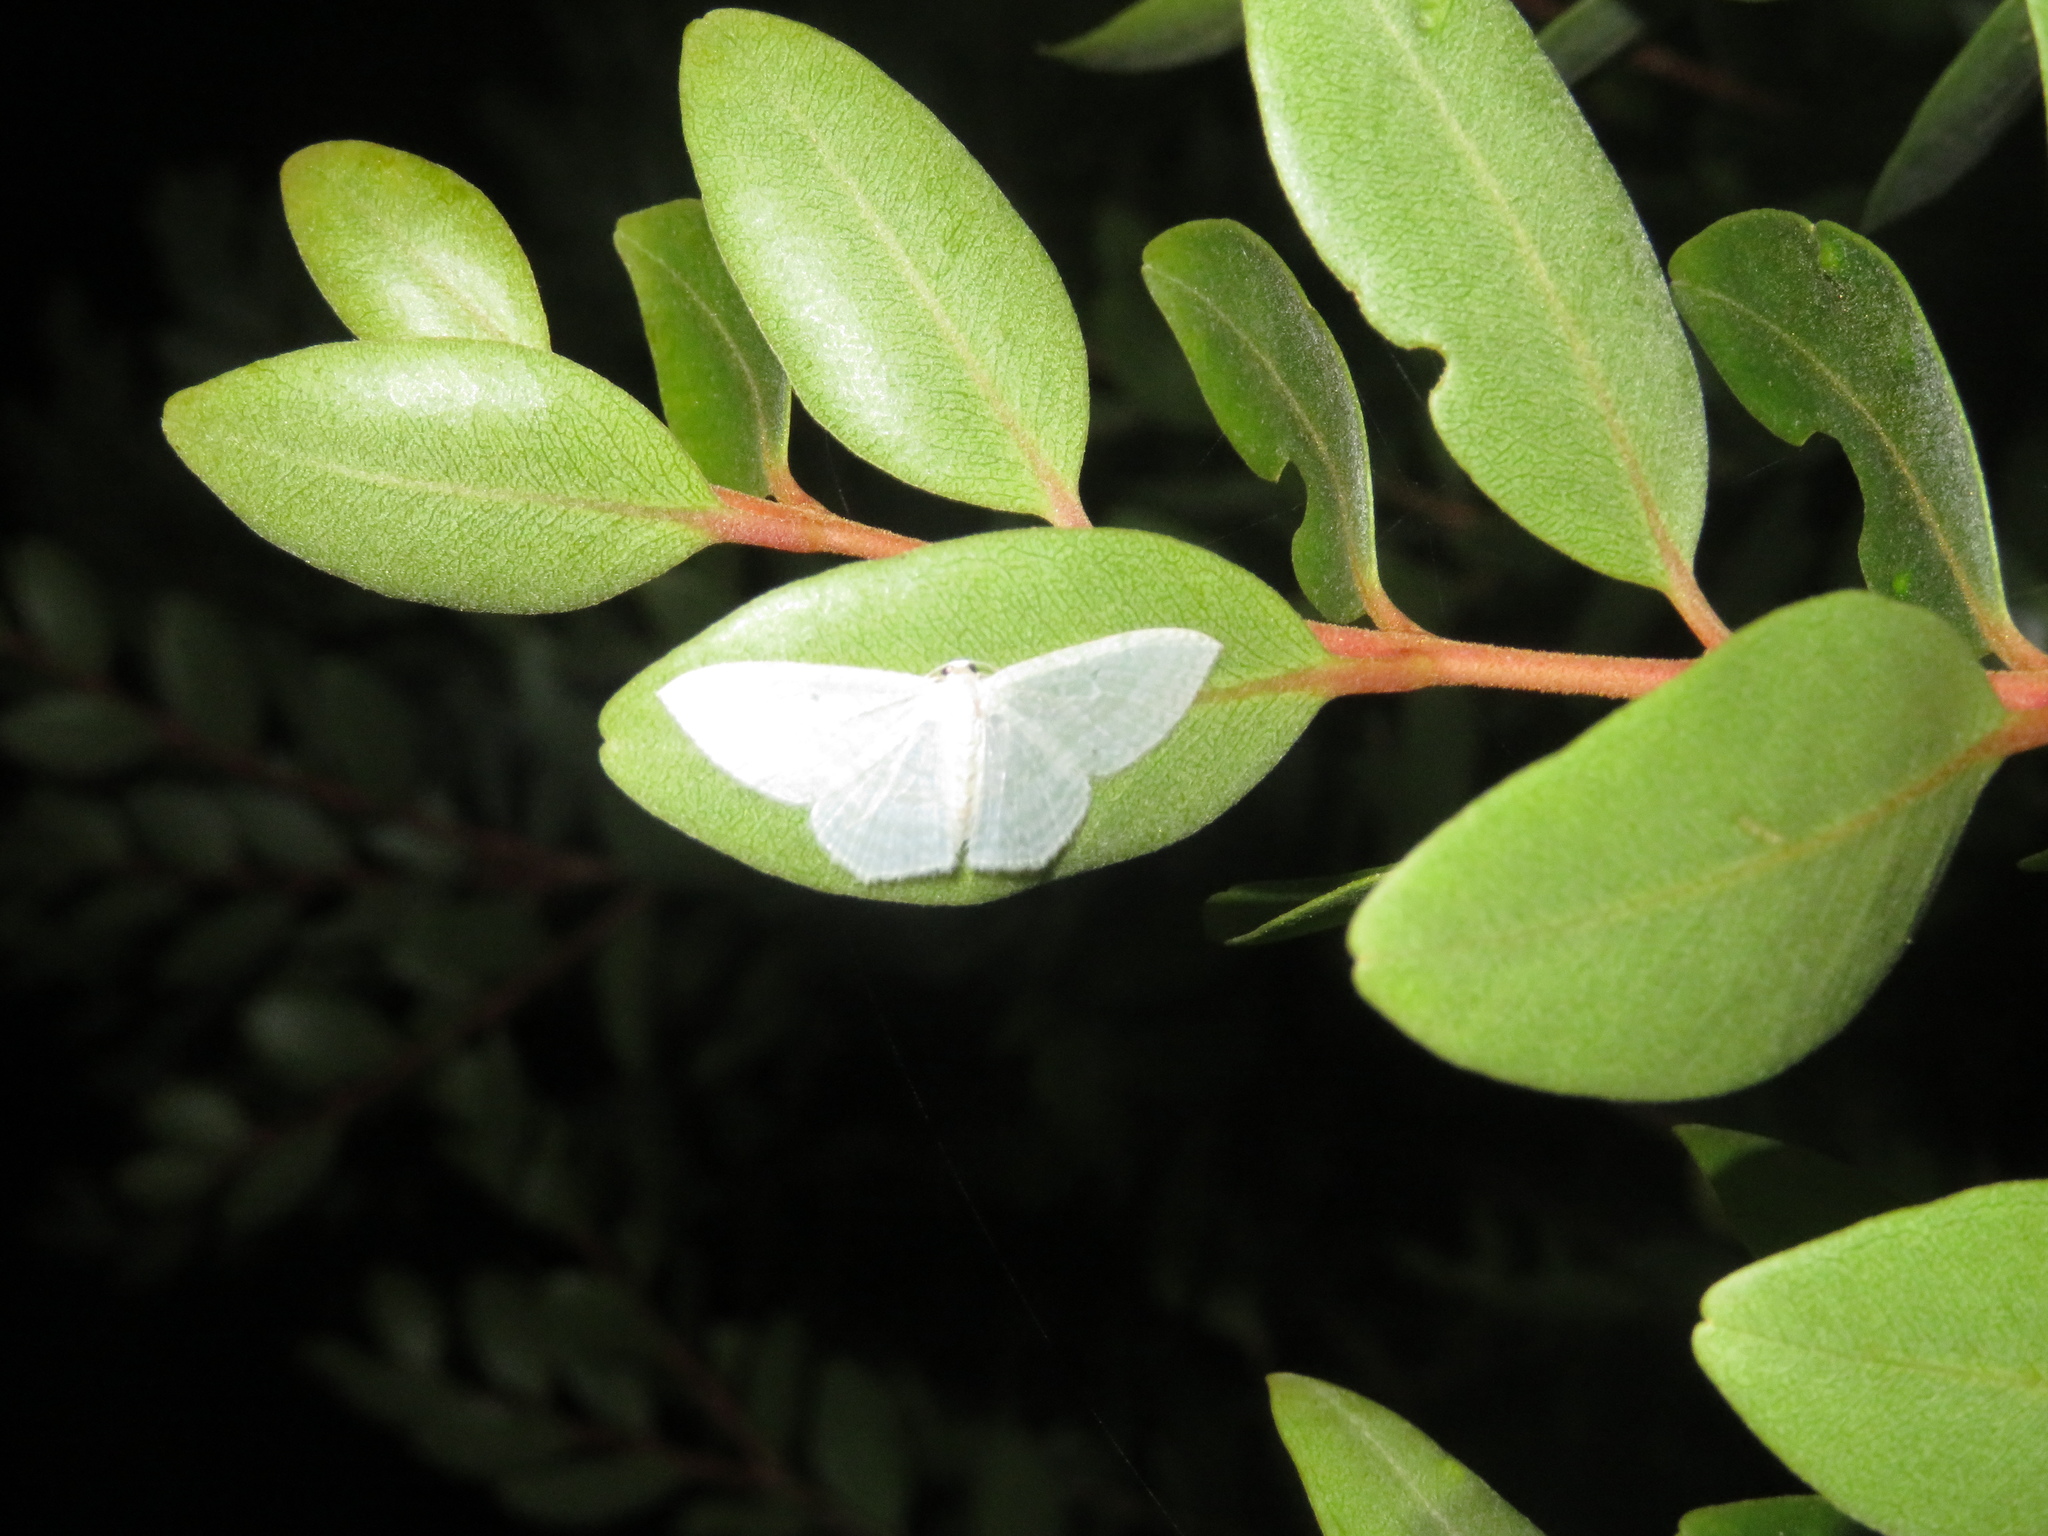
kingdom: Animalia
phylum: Arthropoda
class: Insecta
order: Lepidoptera
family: Geometridae
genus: Poecilasthena
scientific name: Poecilasthena pulchraria
